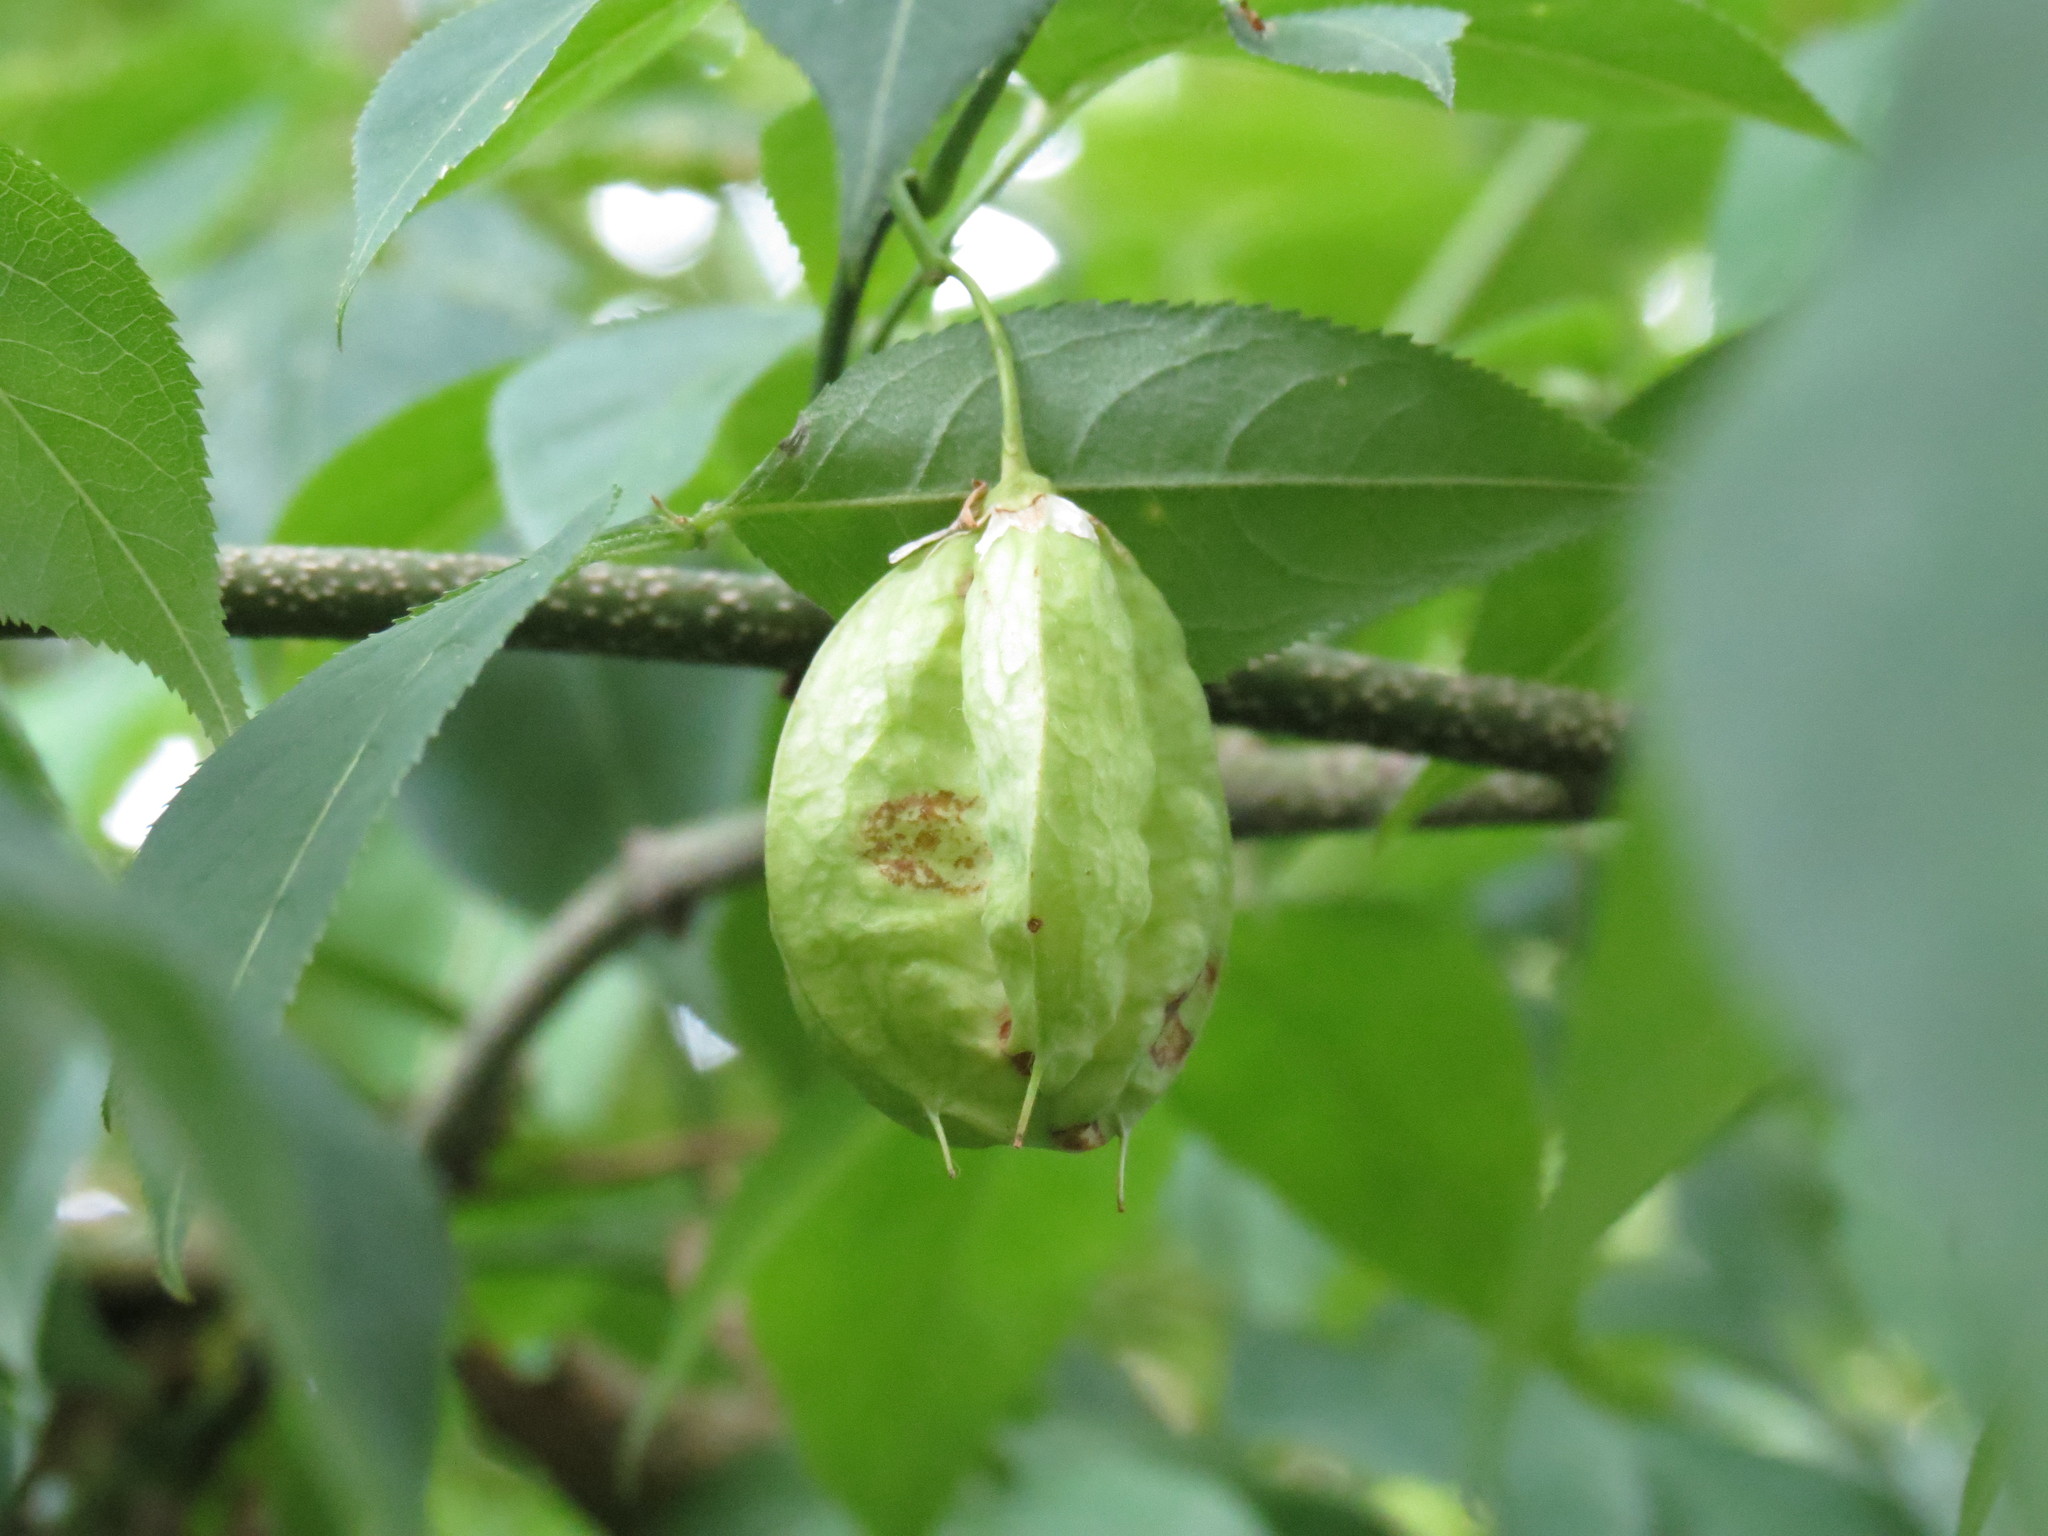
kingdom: Plantae
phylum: Tracheophyta
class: Magnoliopsida
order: Crossosomatales
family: Staphyleaceae
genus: Staphylea
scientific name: Staphylea trifolia
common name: American bladdernut
